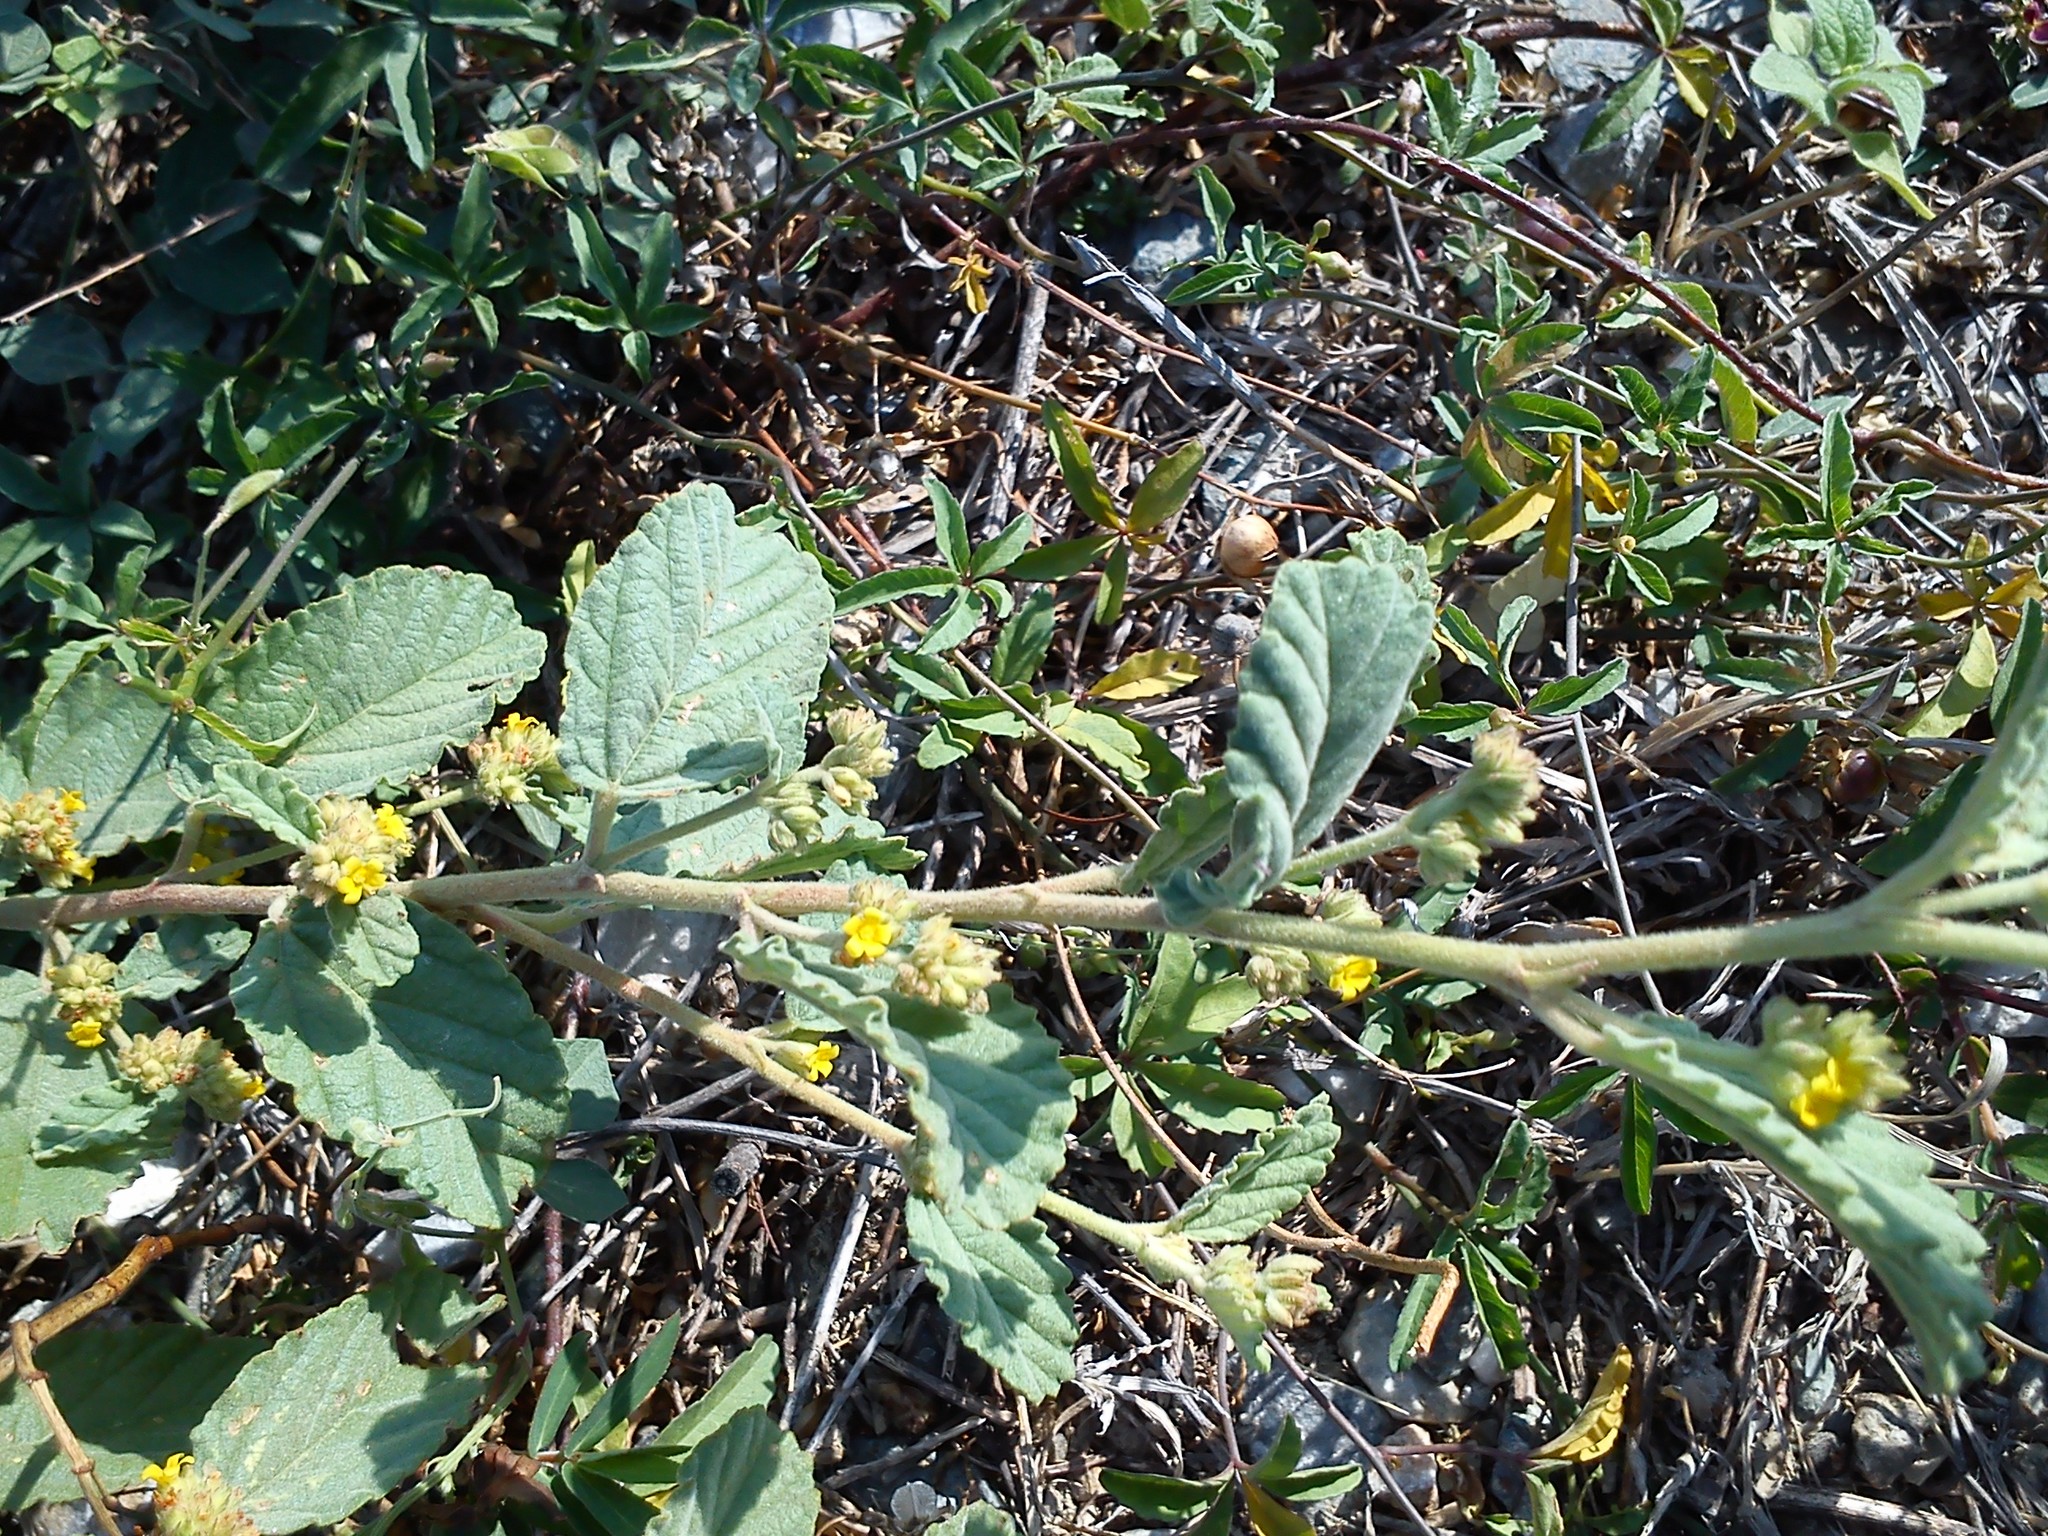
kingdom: Plantae
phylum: Tracheophyta
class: Magnoliopsida
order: Malvales
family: Malvaceae
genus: Waltheria
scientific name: Waltheria indica
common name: Leather-coat
